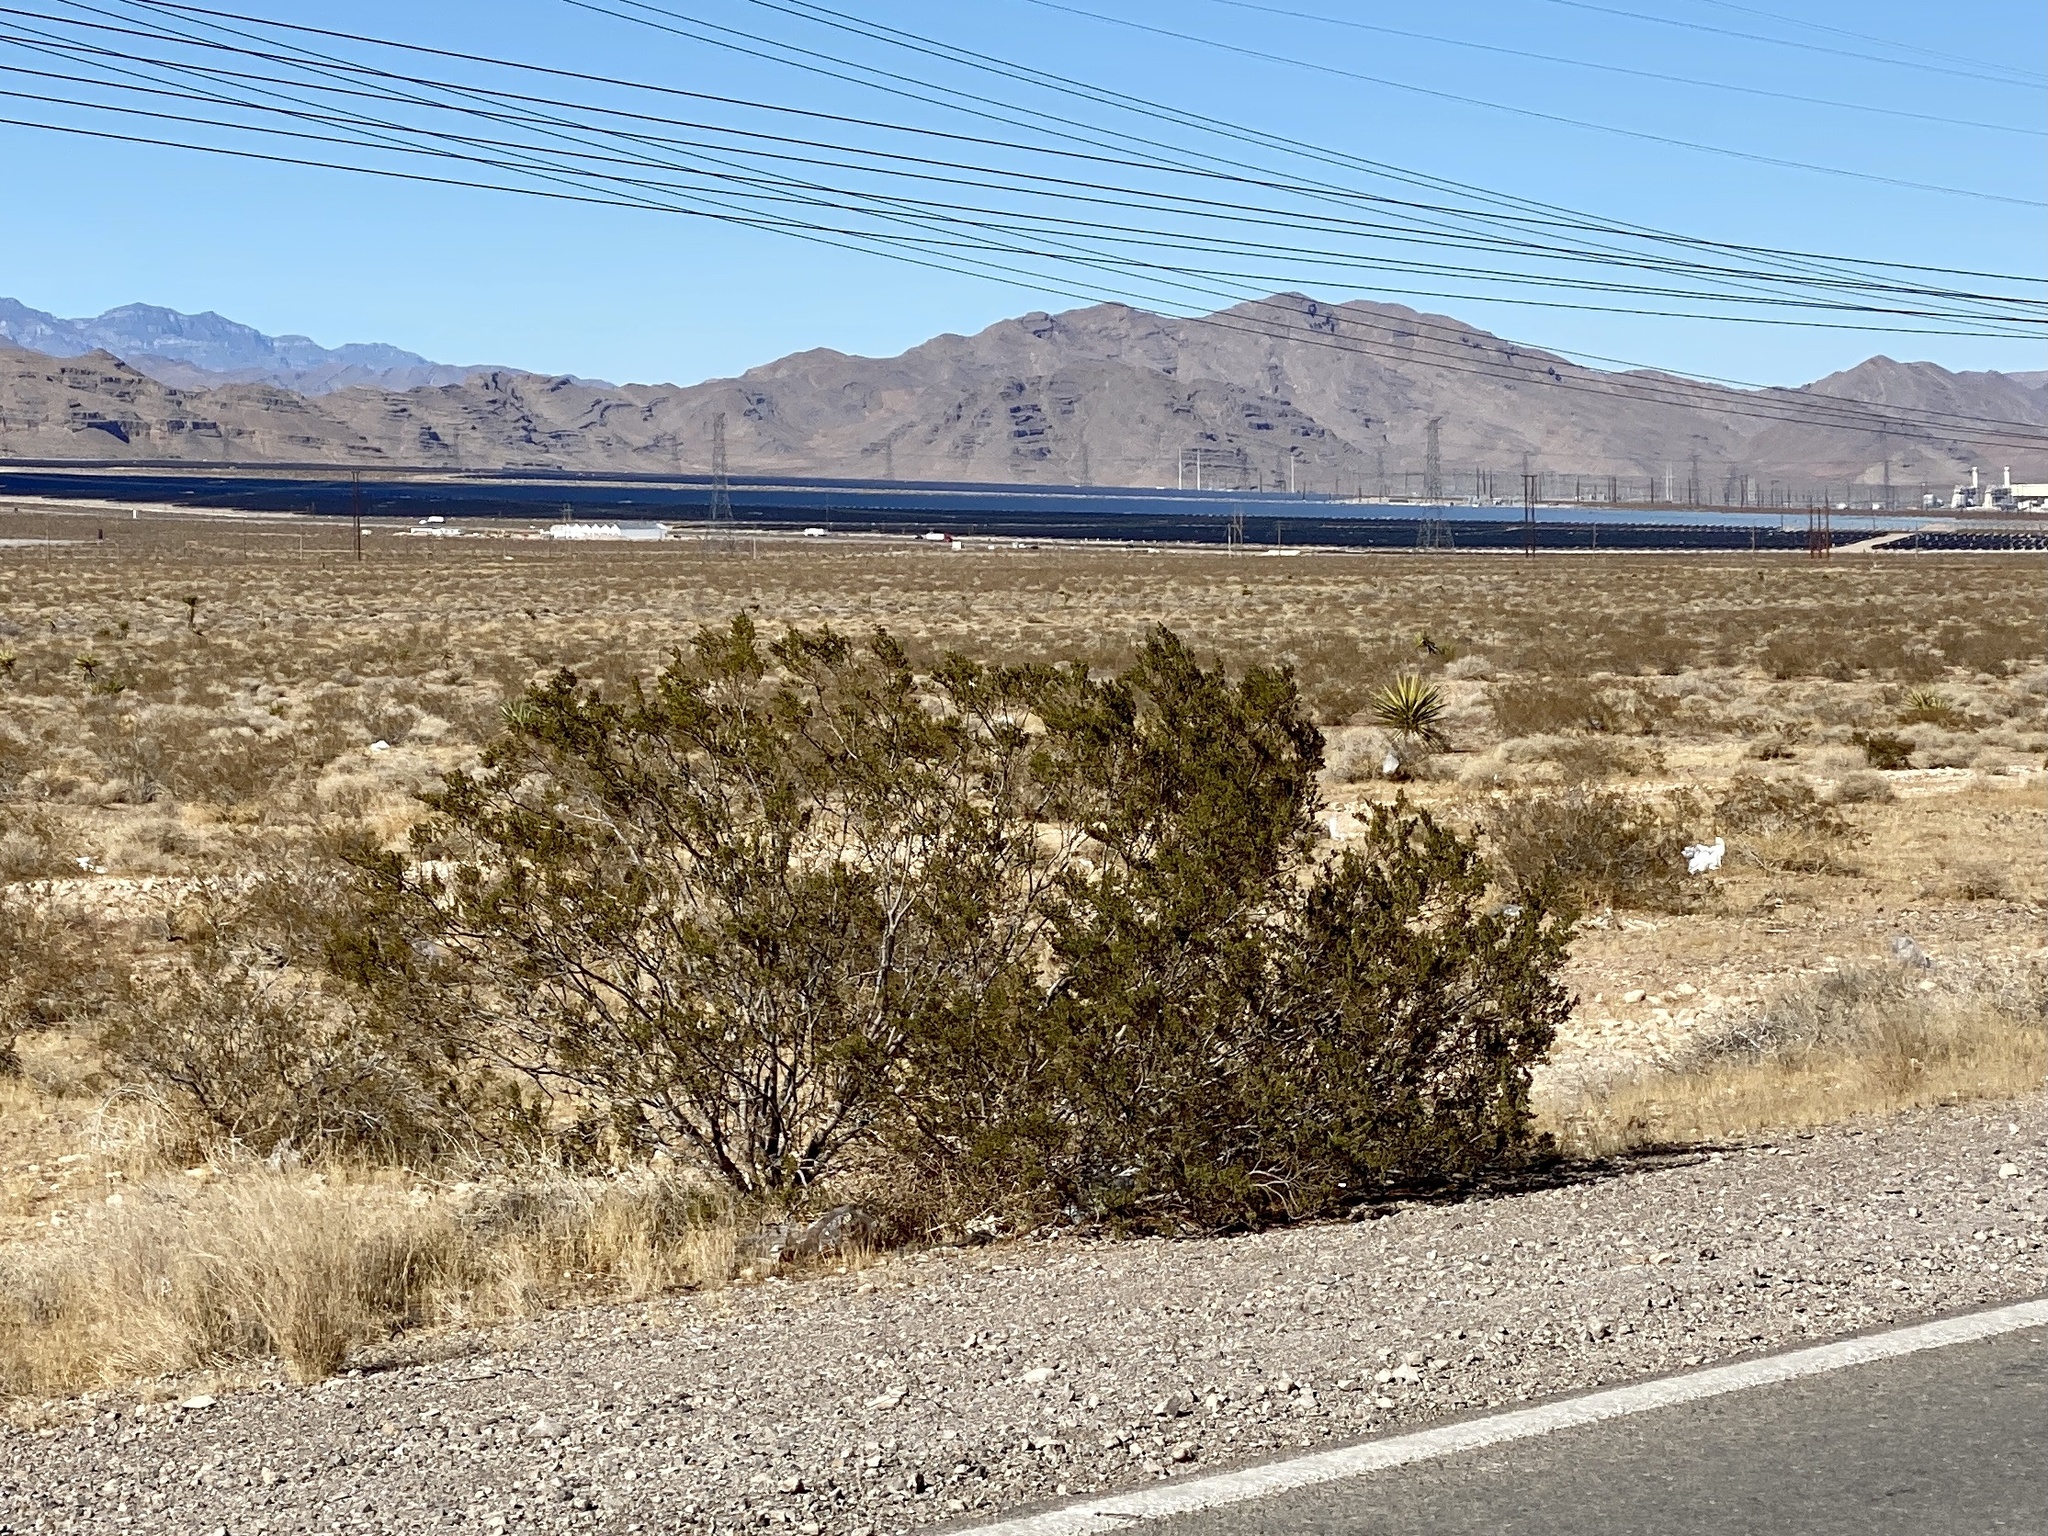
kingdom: Plantae
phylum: Tracheophyta
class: Magnoliopsida
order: Zygophyllales
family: Zygophyllaceae
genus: Larrea
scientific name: Larrea tridentata
